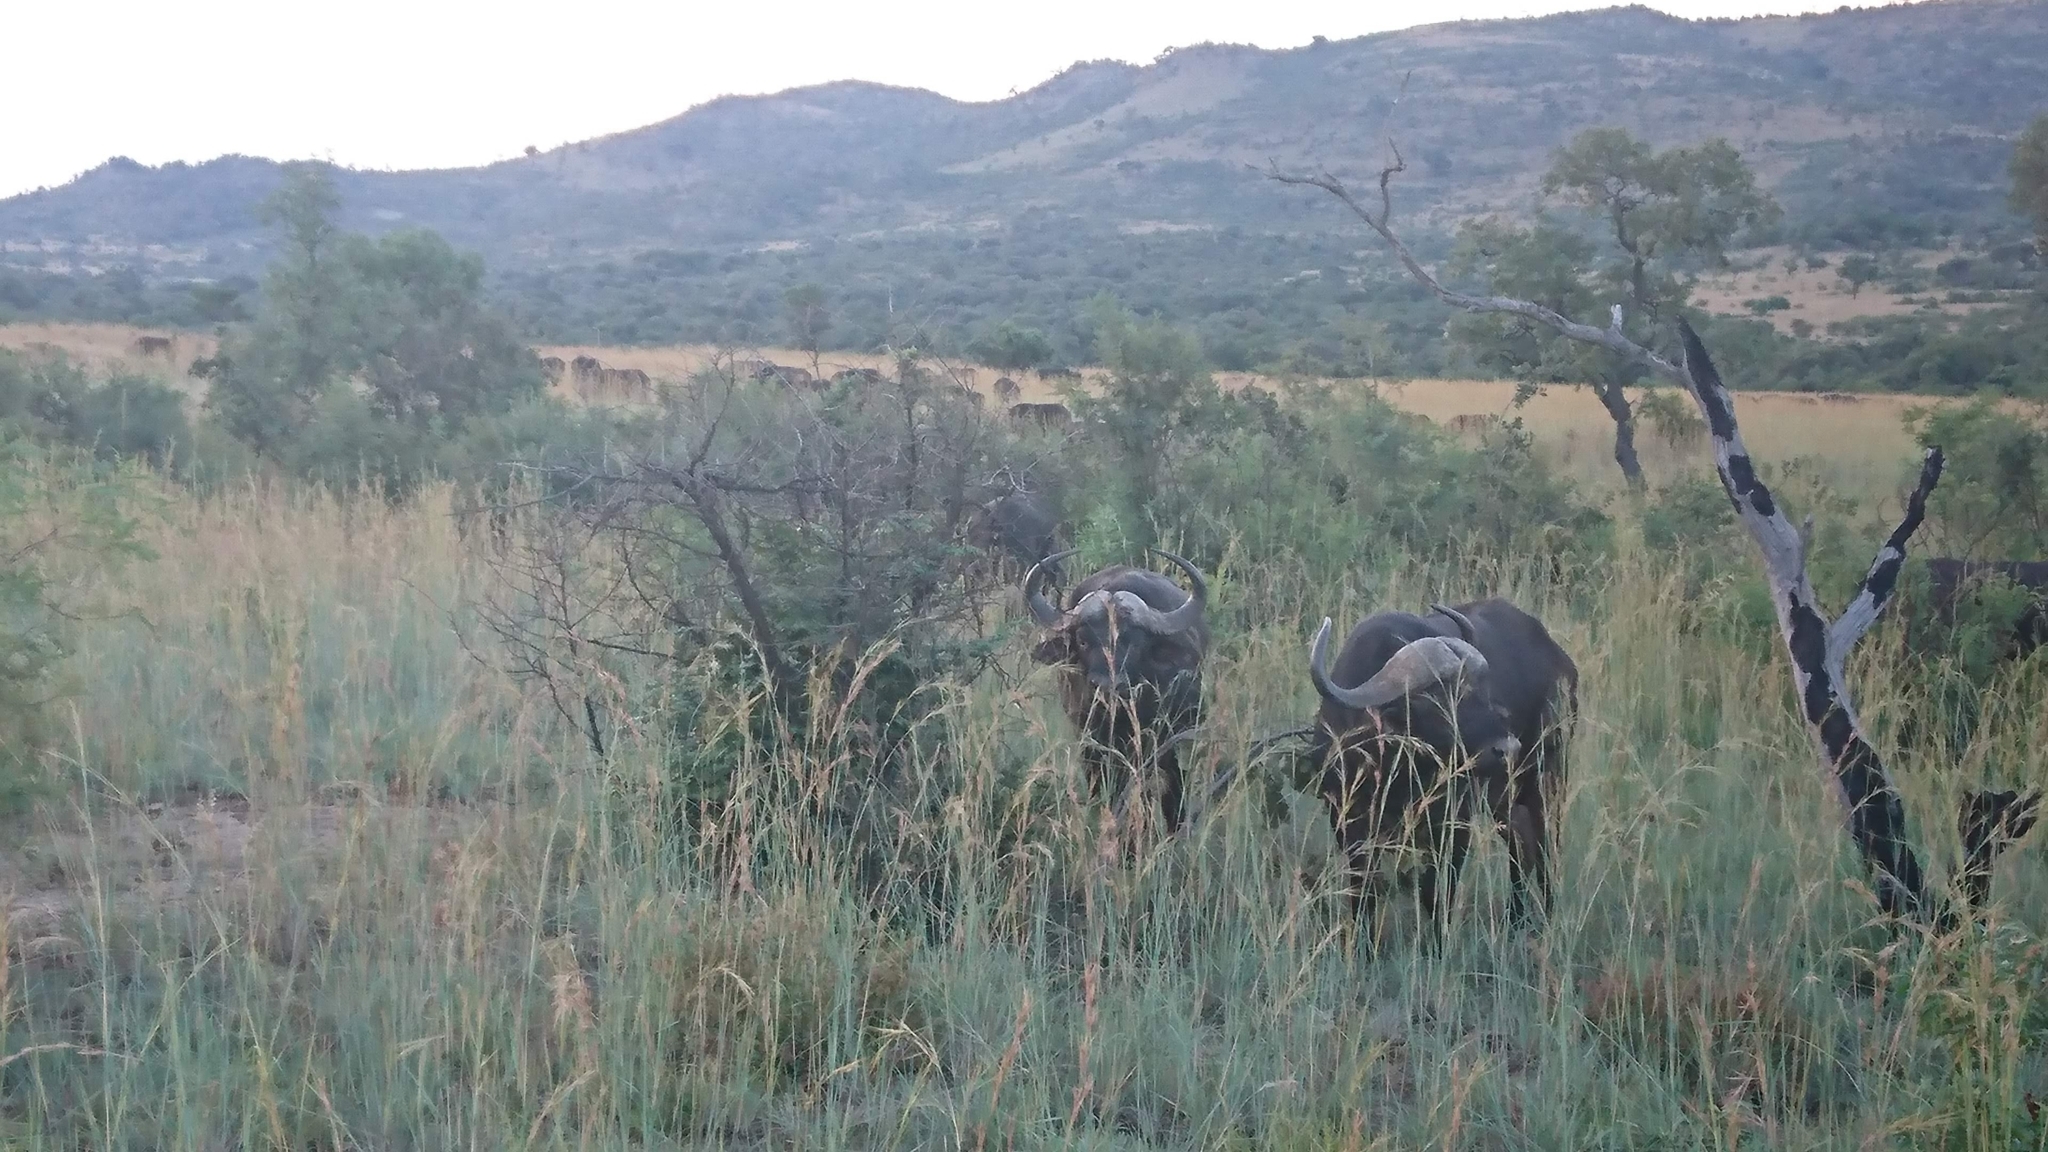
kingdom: Animalia
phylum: Chordata
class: Mammalia
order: Artiodactyla
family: Bovidae
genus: Syncerus
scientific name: Syncerus caffer
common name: African buffalo
